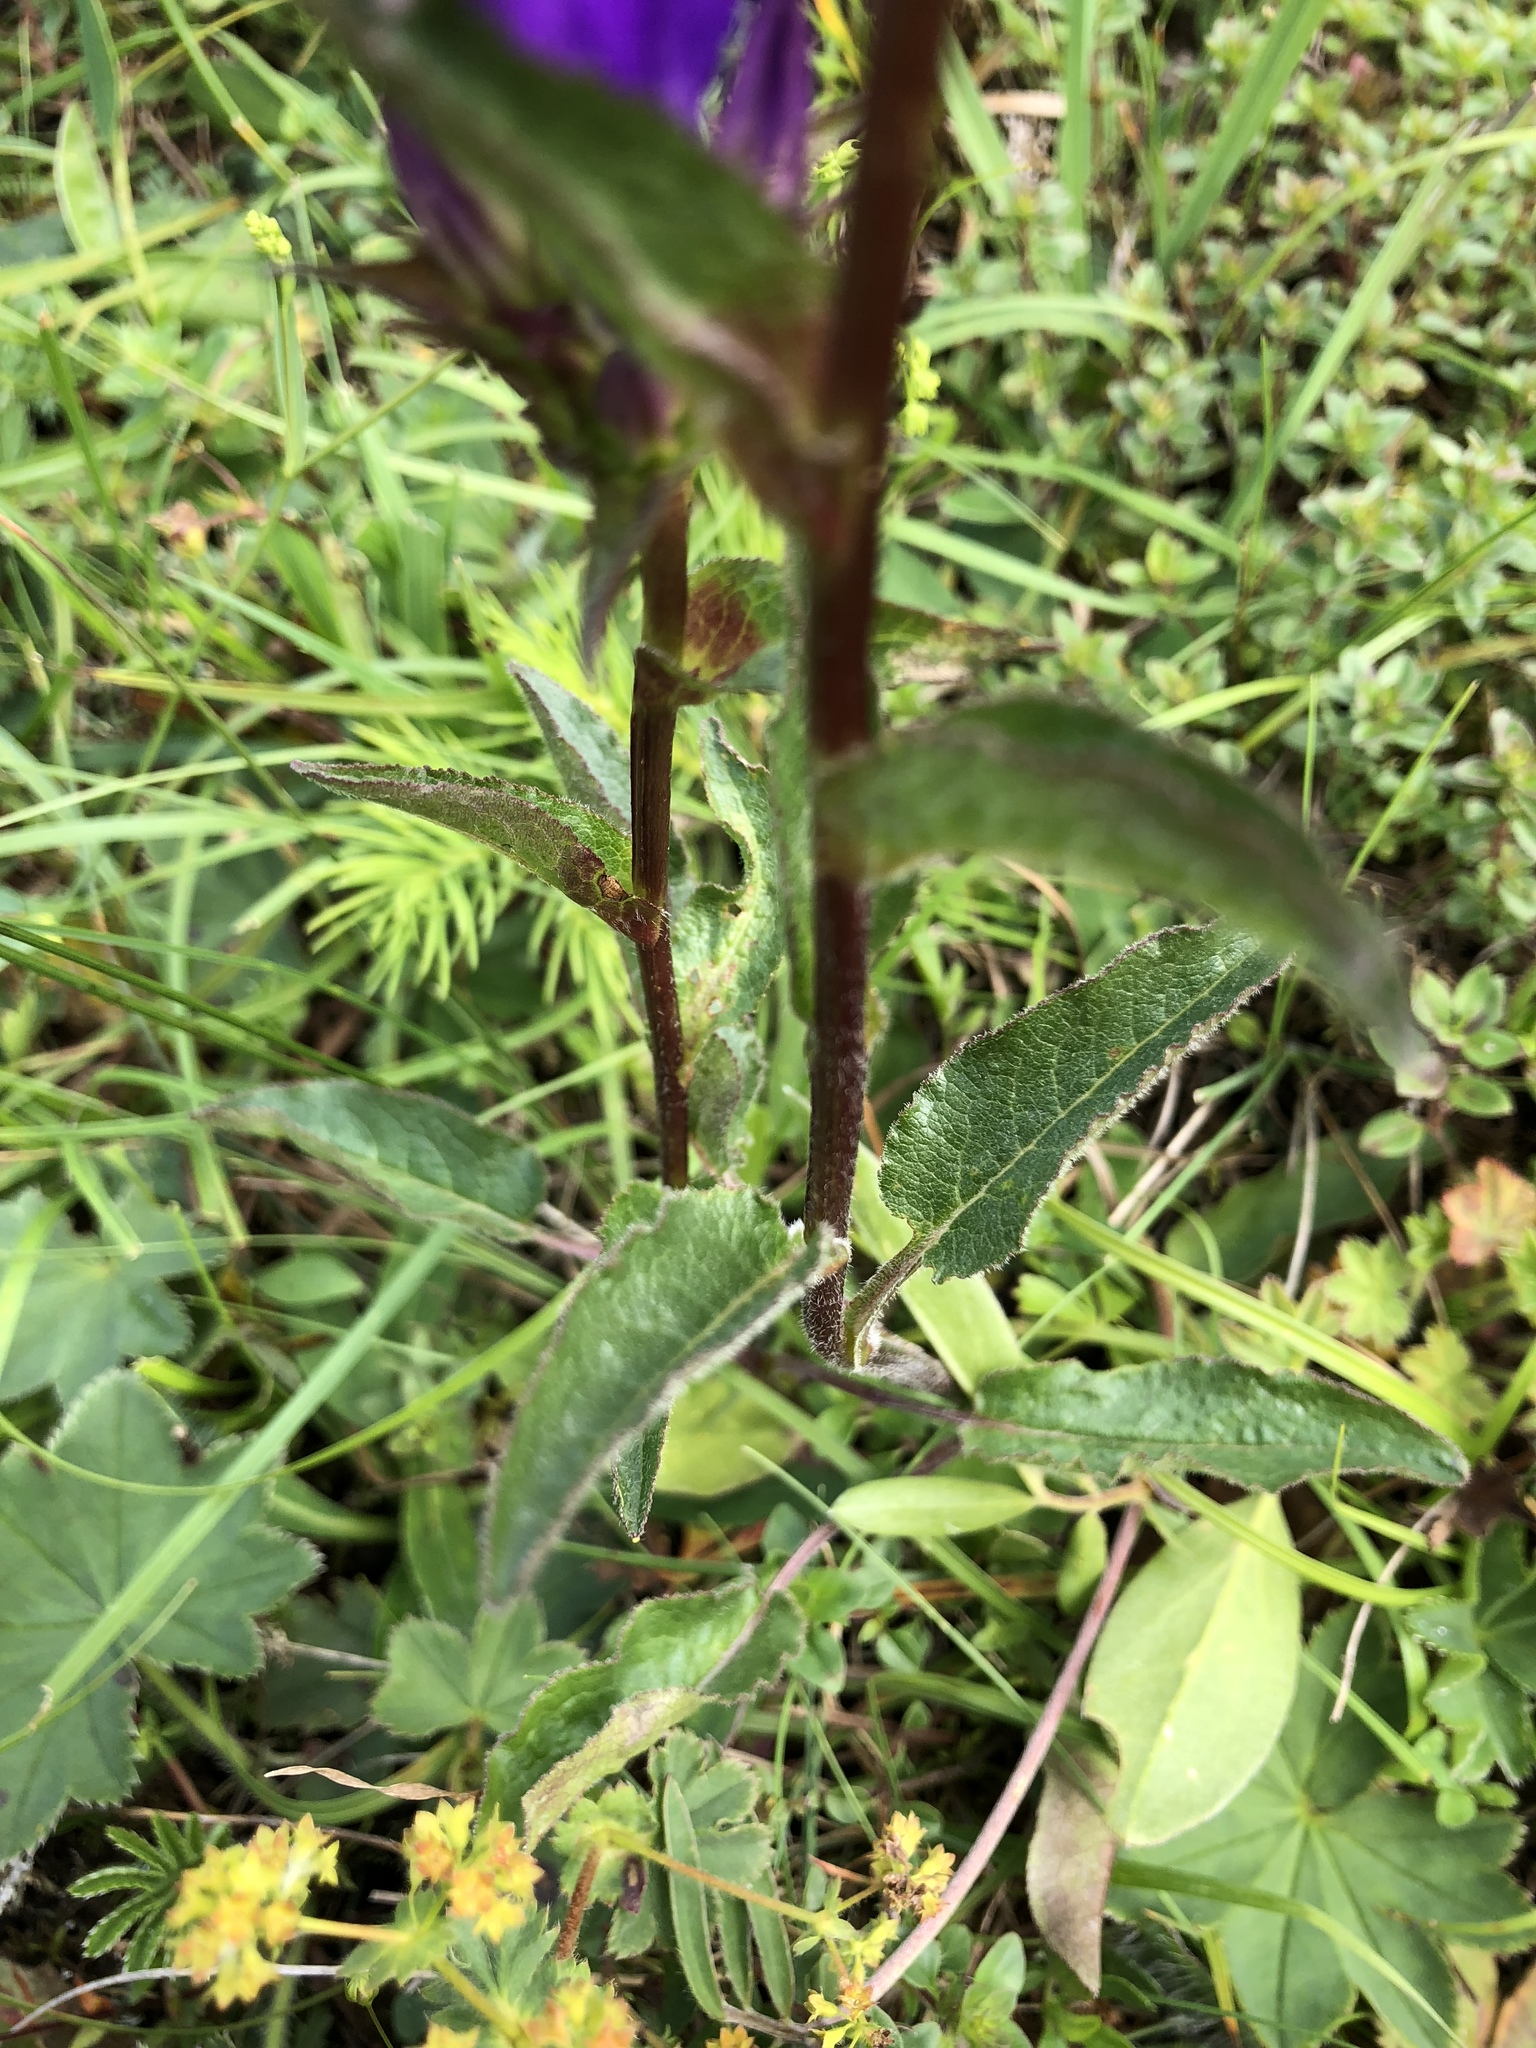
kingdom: Plantae
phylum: Tracheophyta
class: Magnoliopsida
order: Asterales
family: Campanulaceae
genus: Campanula
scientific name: Campanula glomerata
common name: Clustered bellflower
